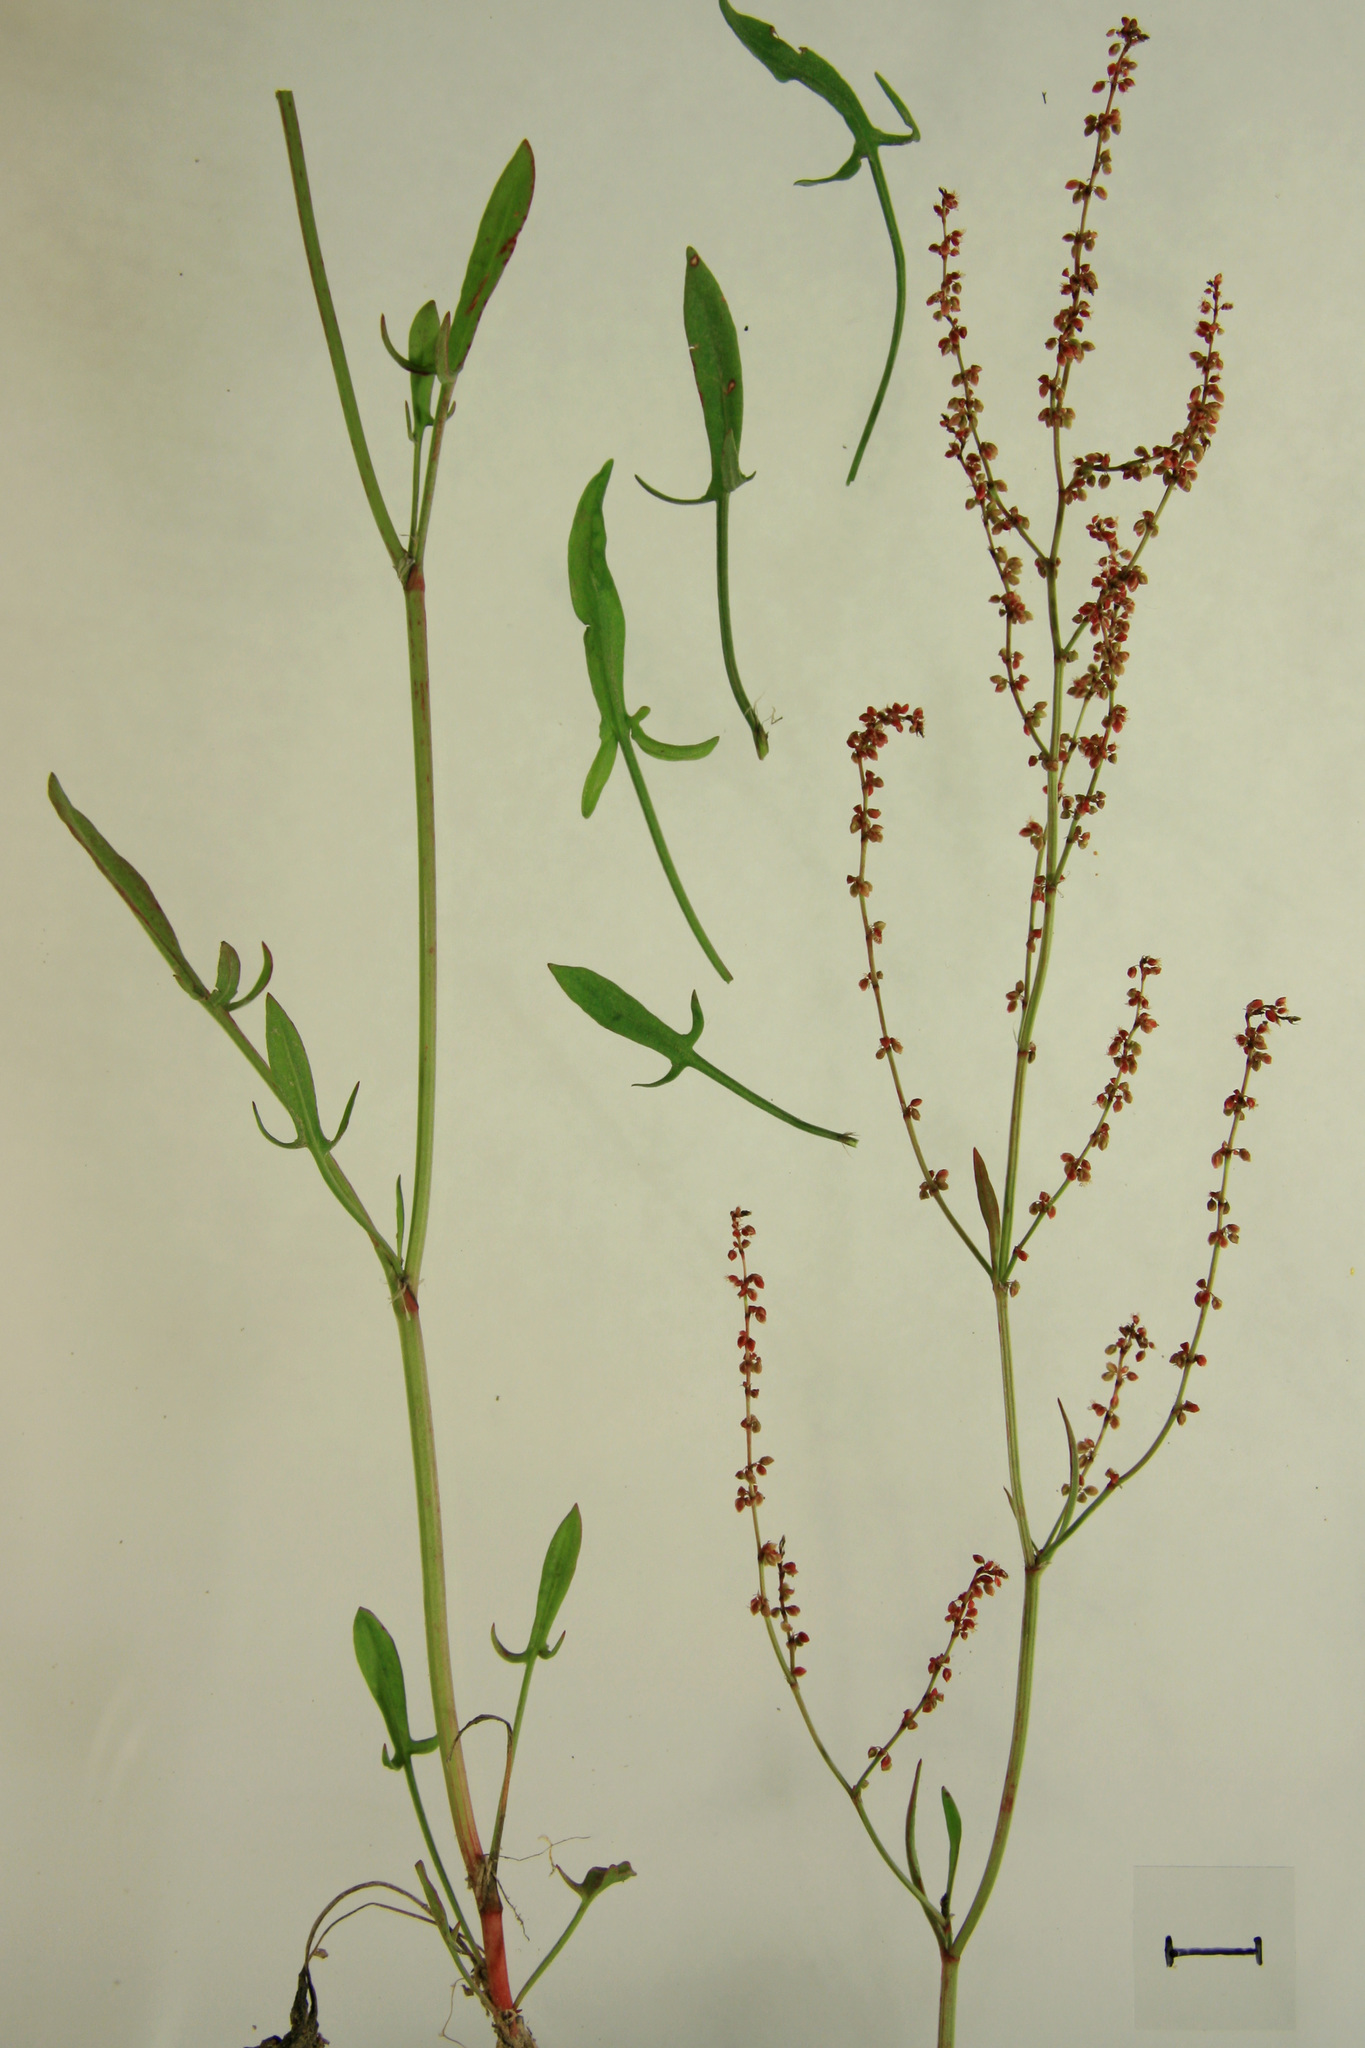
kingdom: Plantae
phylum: Tracheophyta
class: Magnoliopsida
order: Caryophyllales
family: Polygonaceae
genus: Rumex
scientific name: Rumex acetosella
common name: Common sheep sorrel
